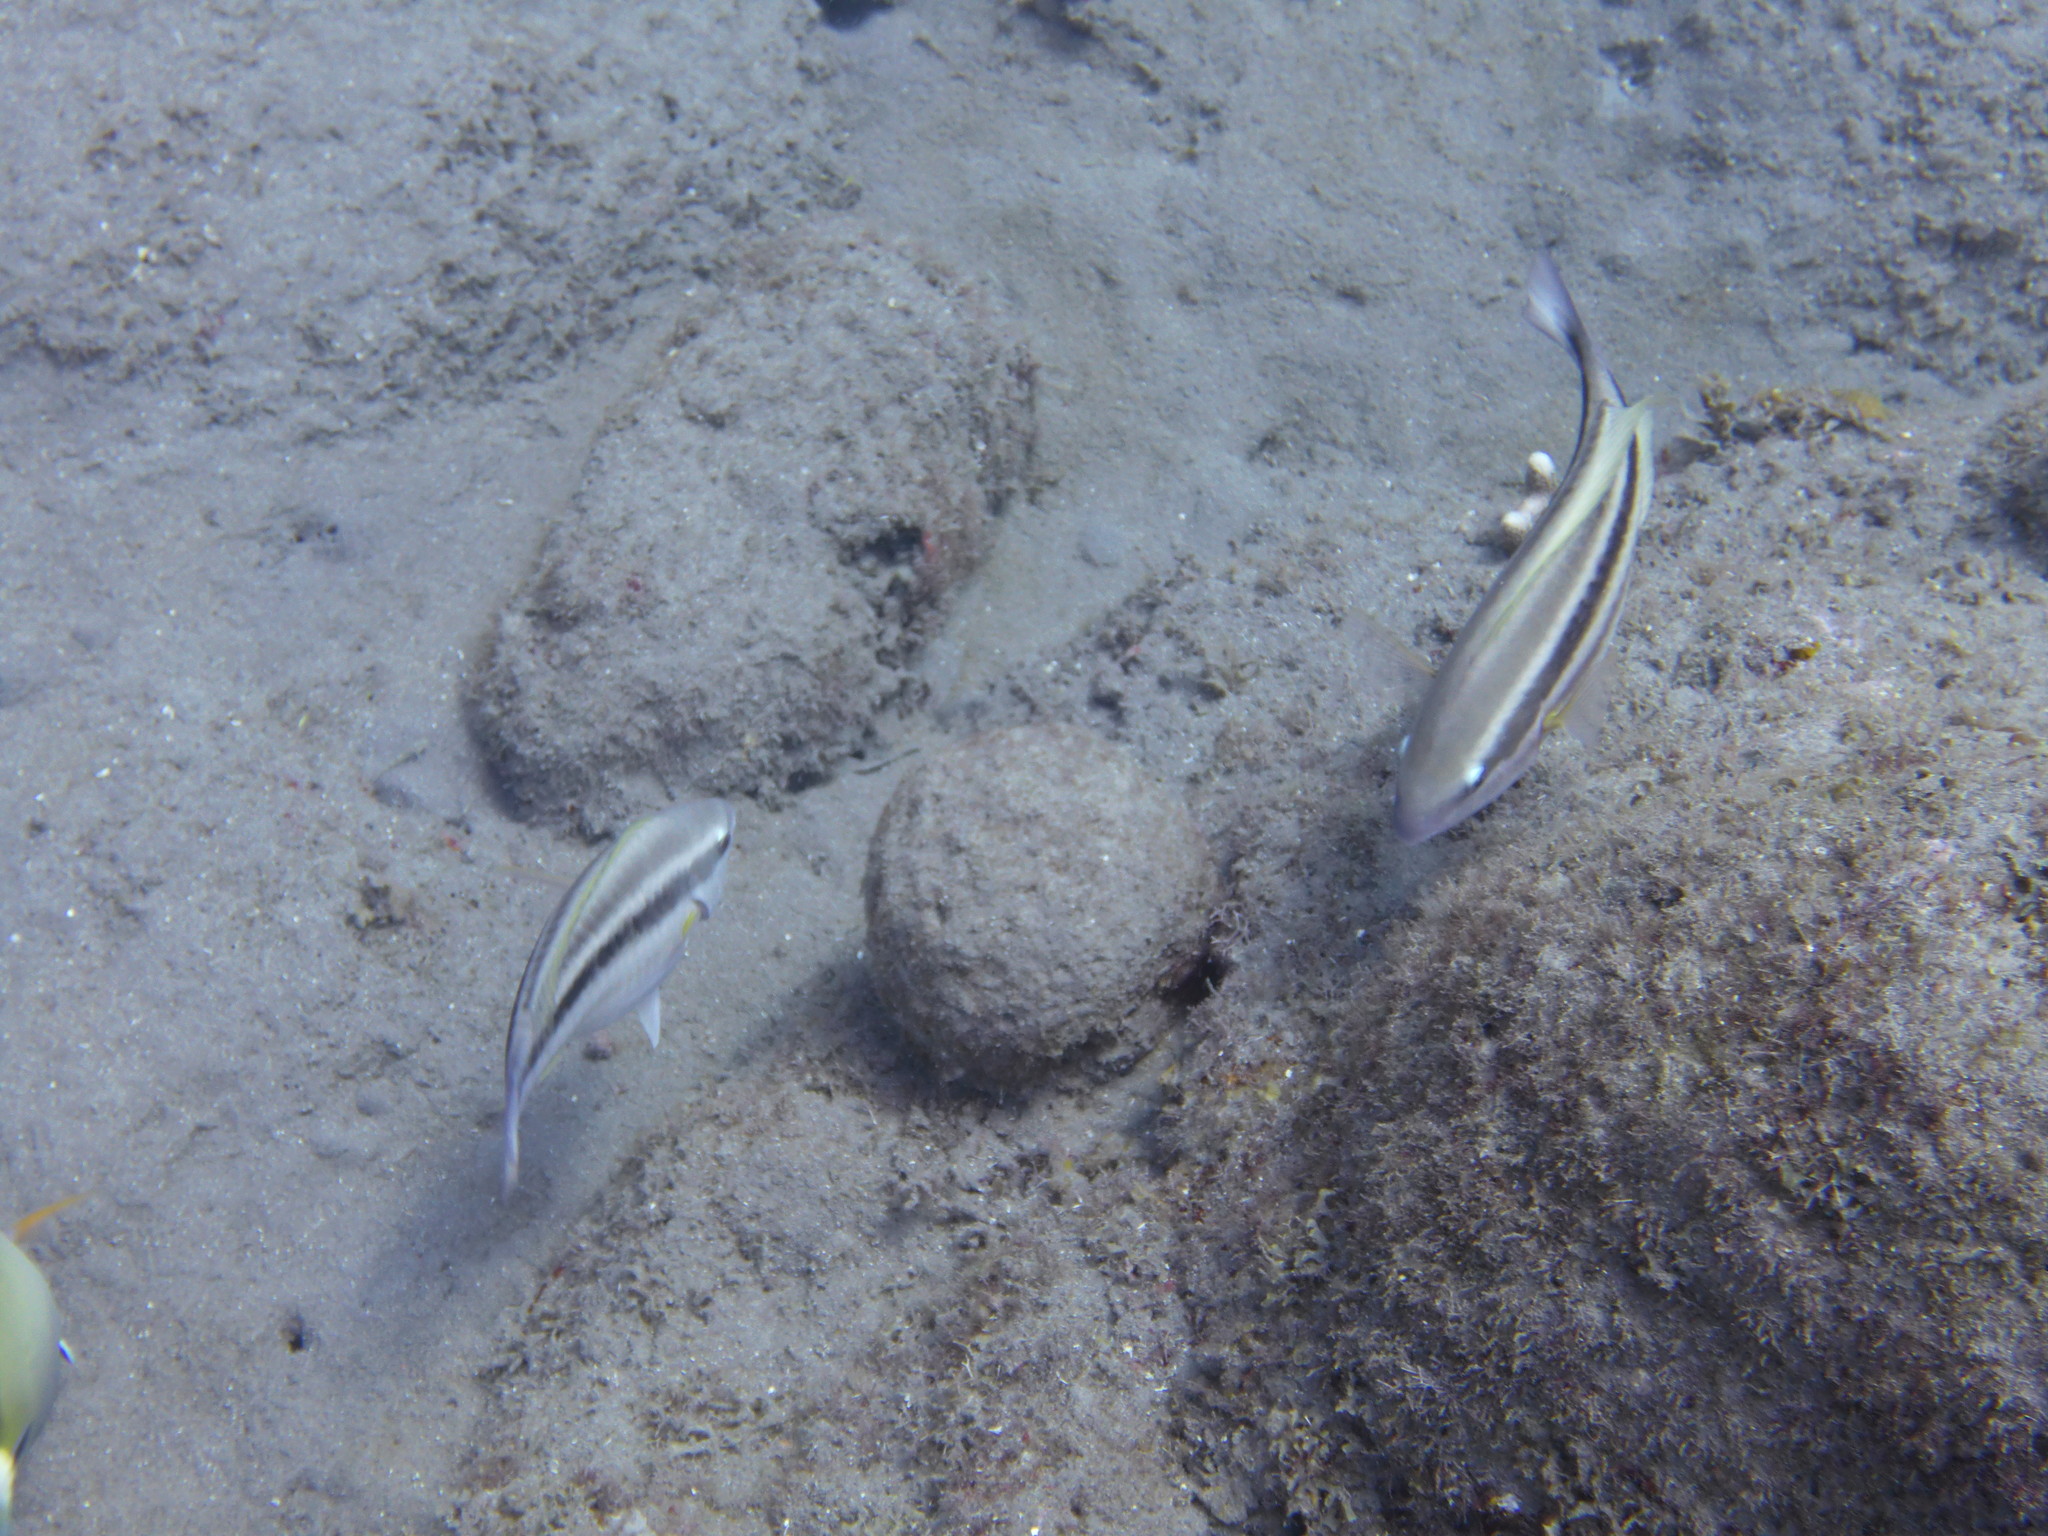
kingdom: Animalia
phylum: Chordata
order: Perciformes
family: Scaridae
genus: Scarus
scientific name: Scarus iseri
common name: Striped parrotfish
